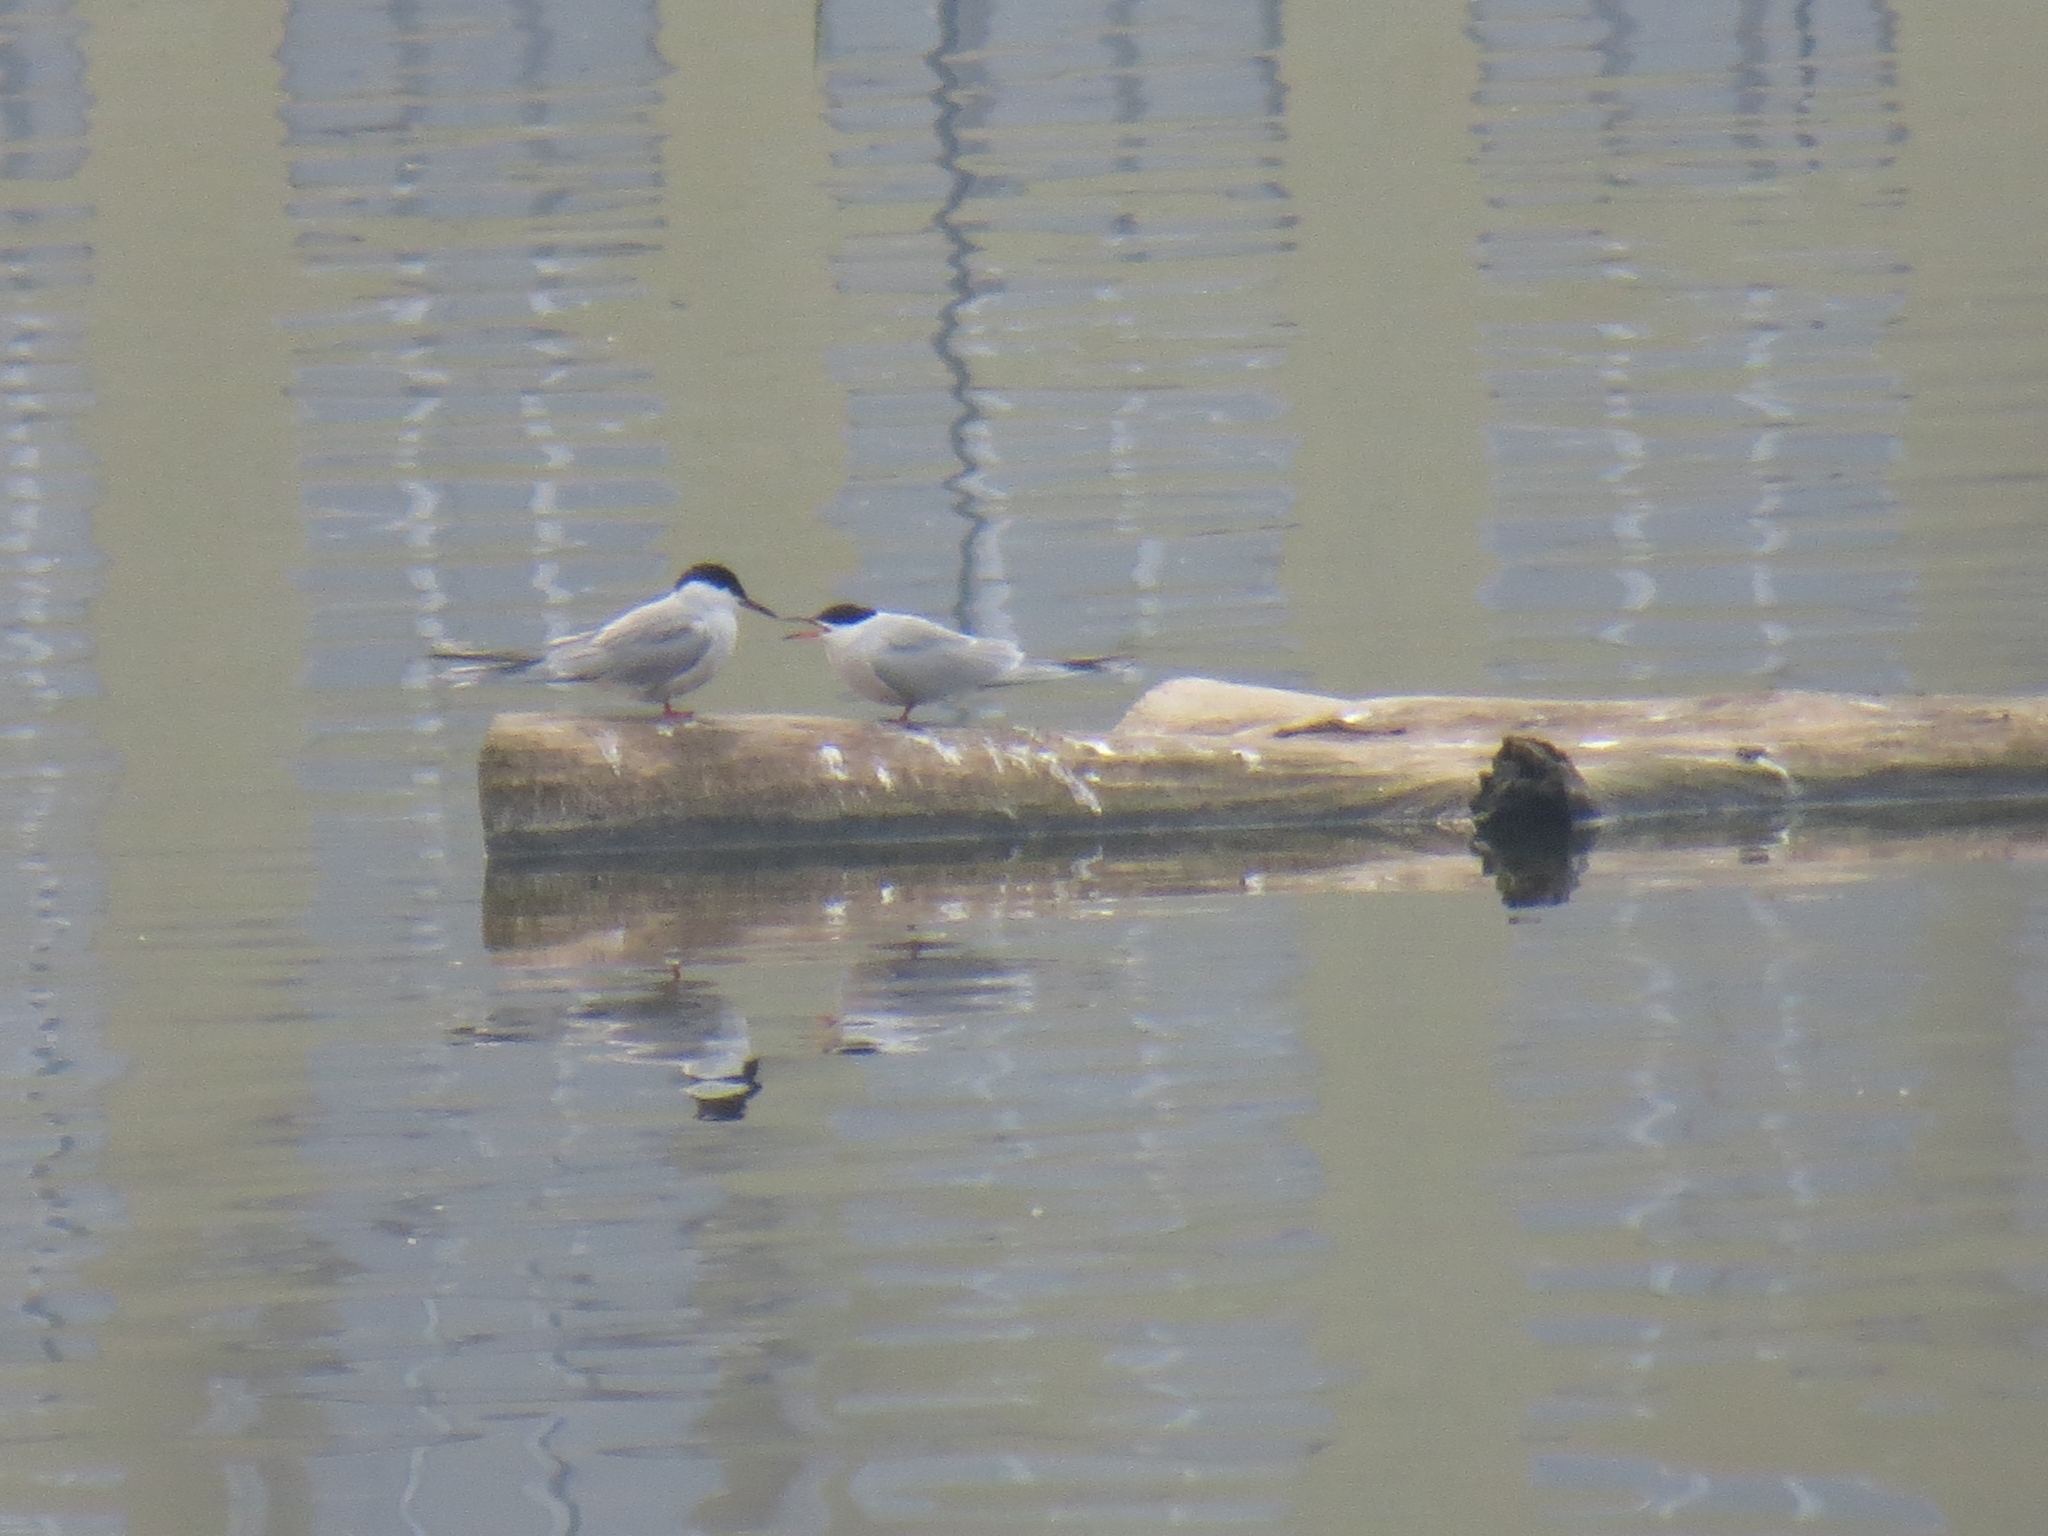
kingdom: Animalia
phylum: Chordata
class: Aves
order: Charadriiformes
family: Laridae
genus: Sterna
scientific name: Sterna hirundo
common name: Common tern
